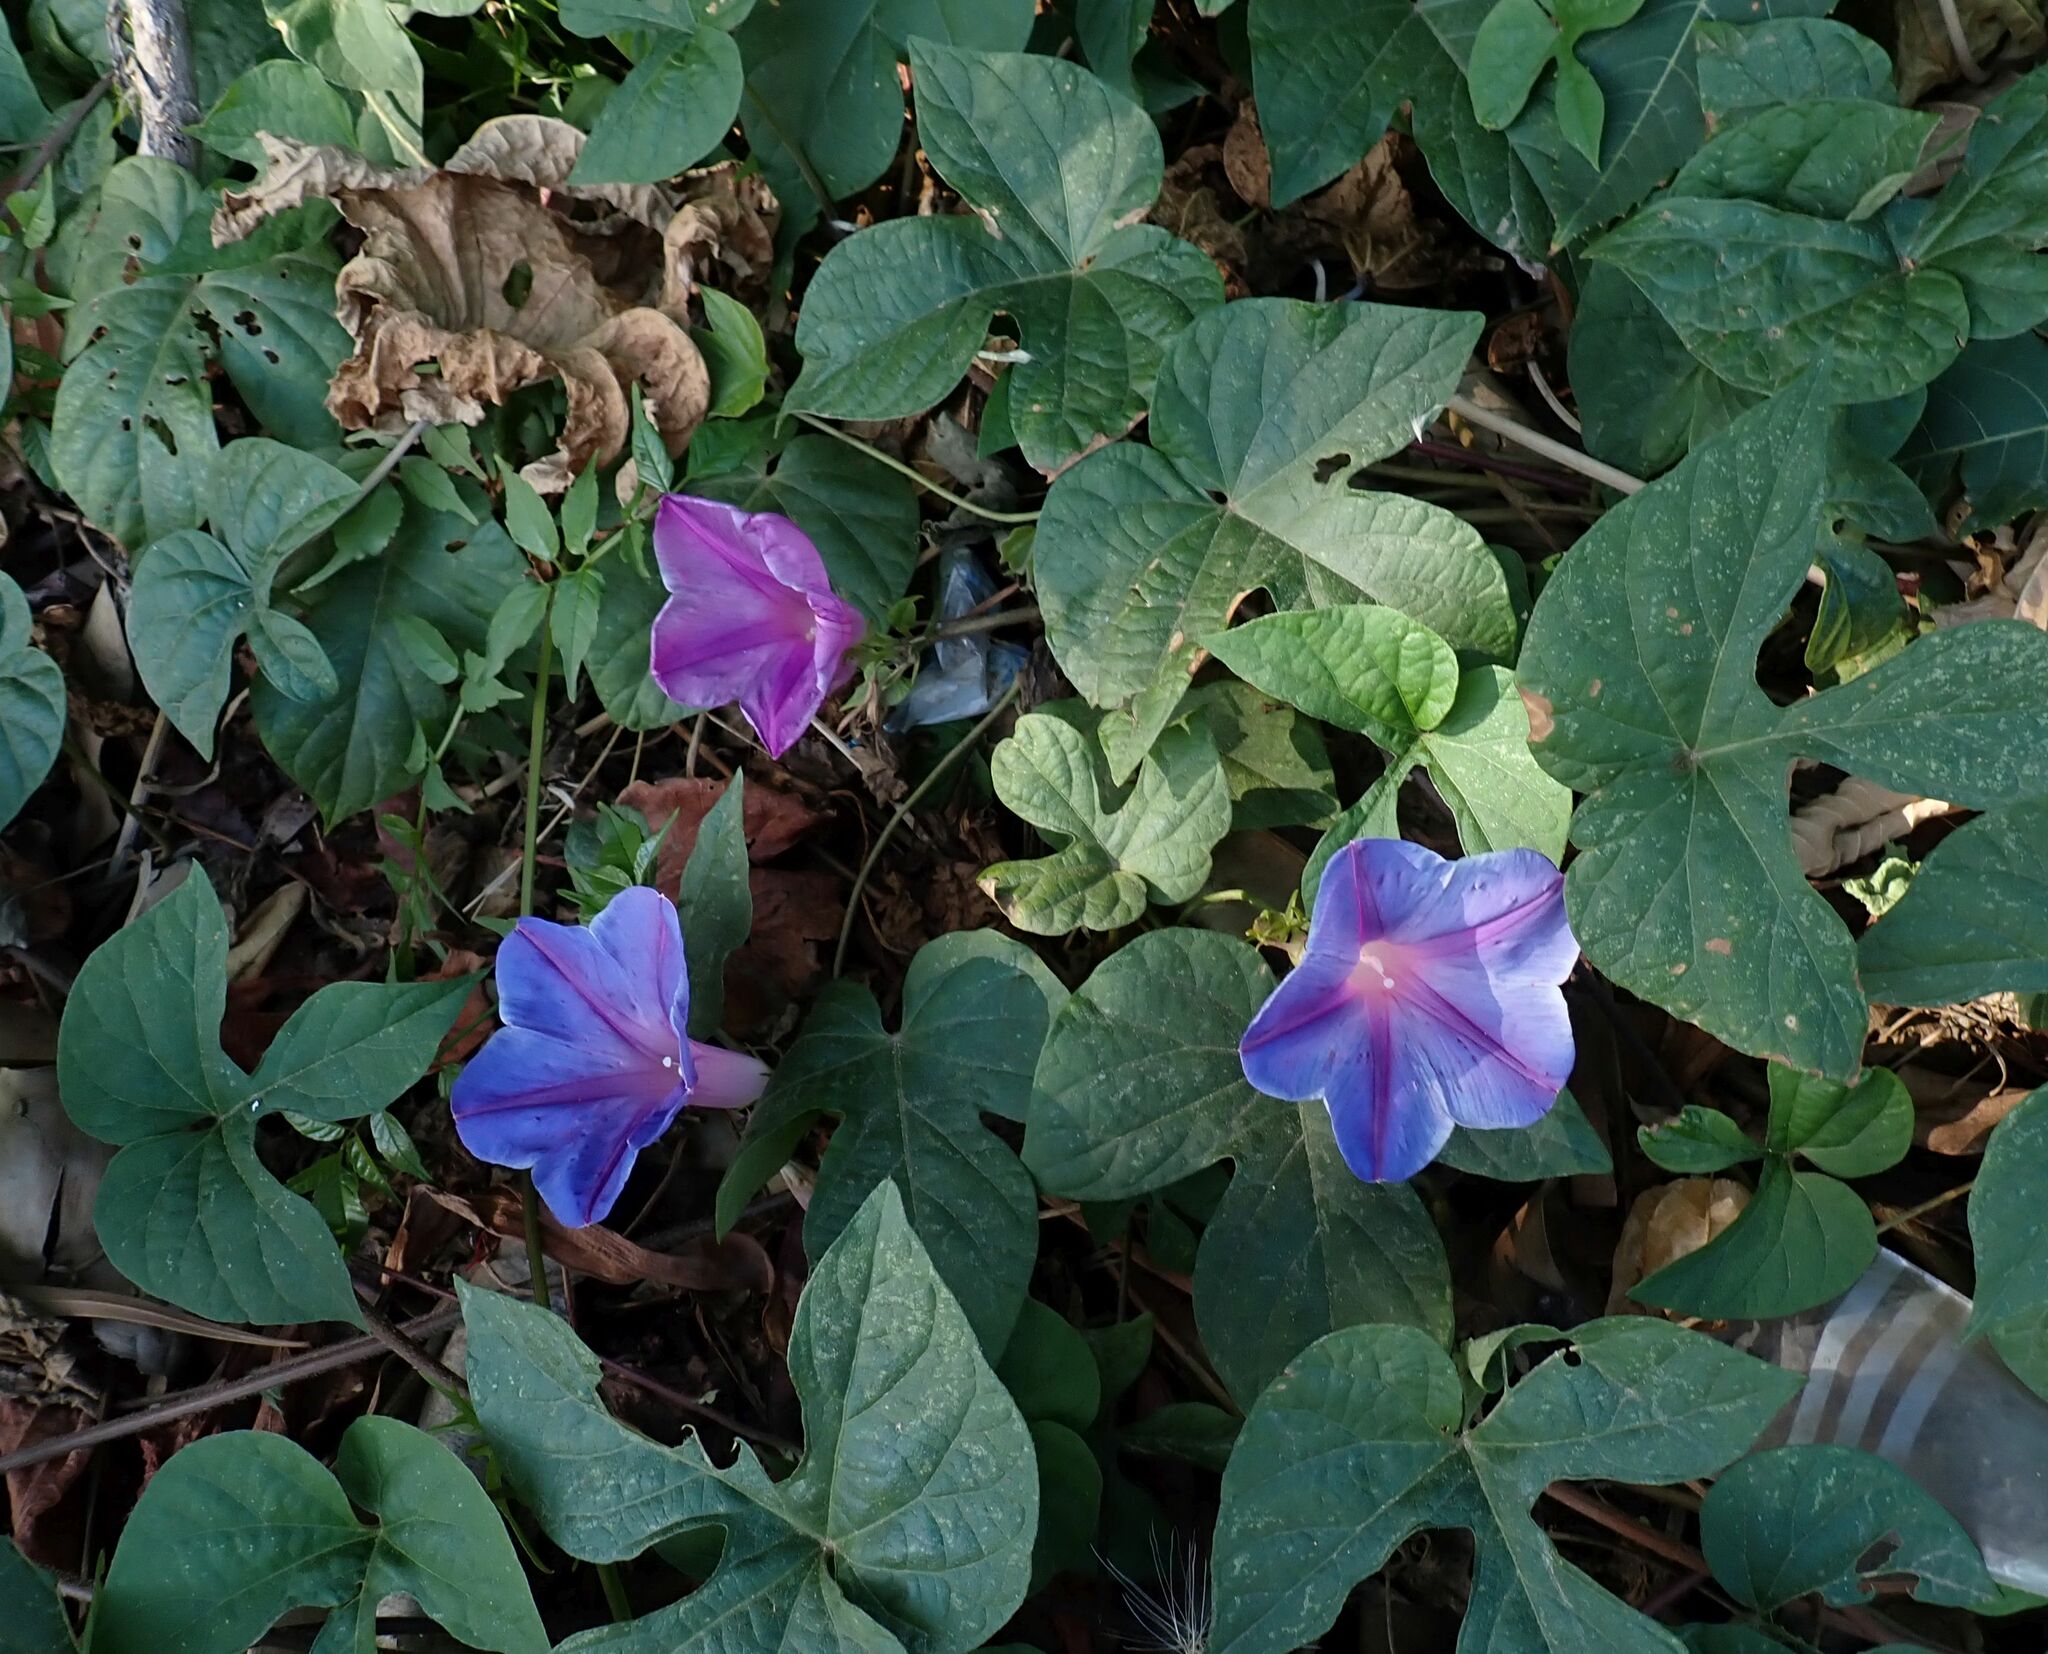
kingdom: Plantae
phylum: Tracheophyta
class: Magnoliopsida
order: Solanales
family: Convolvulaceae
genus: Ipomoea
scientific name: Ipomoea indica
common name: Blue dawnflower
